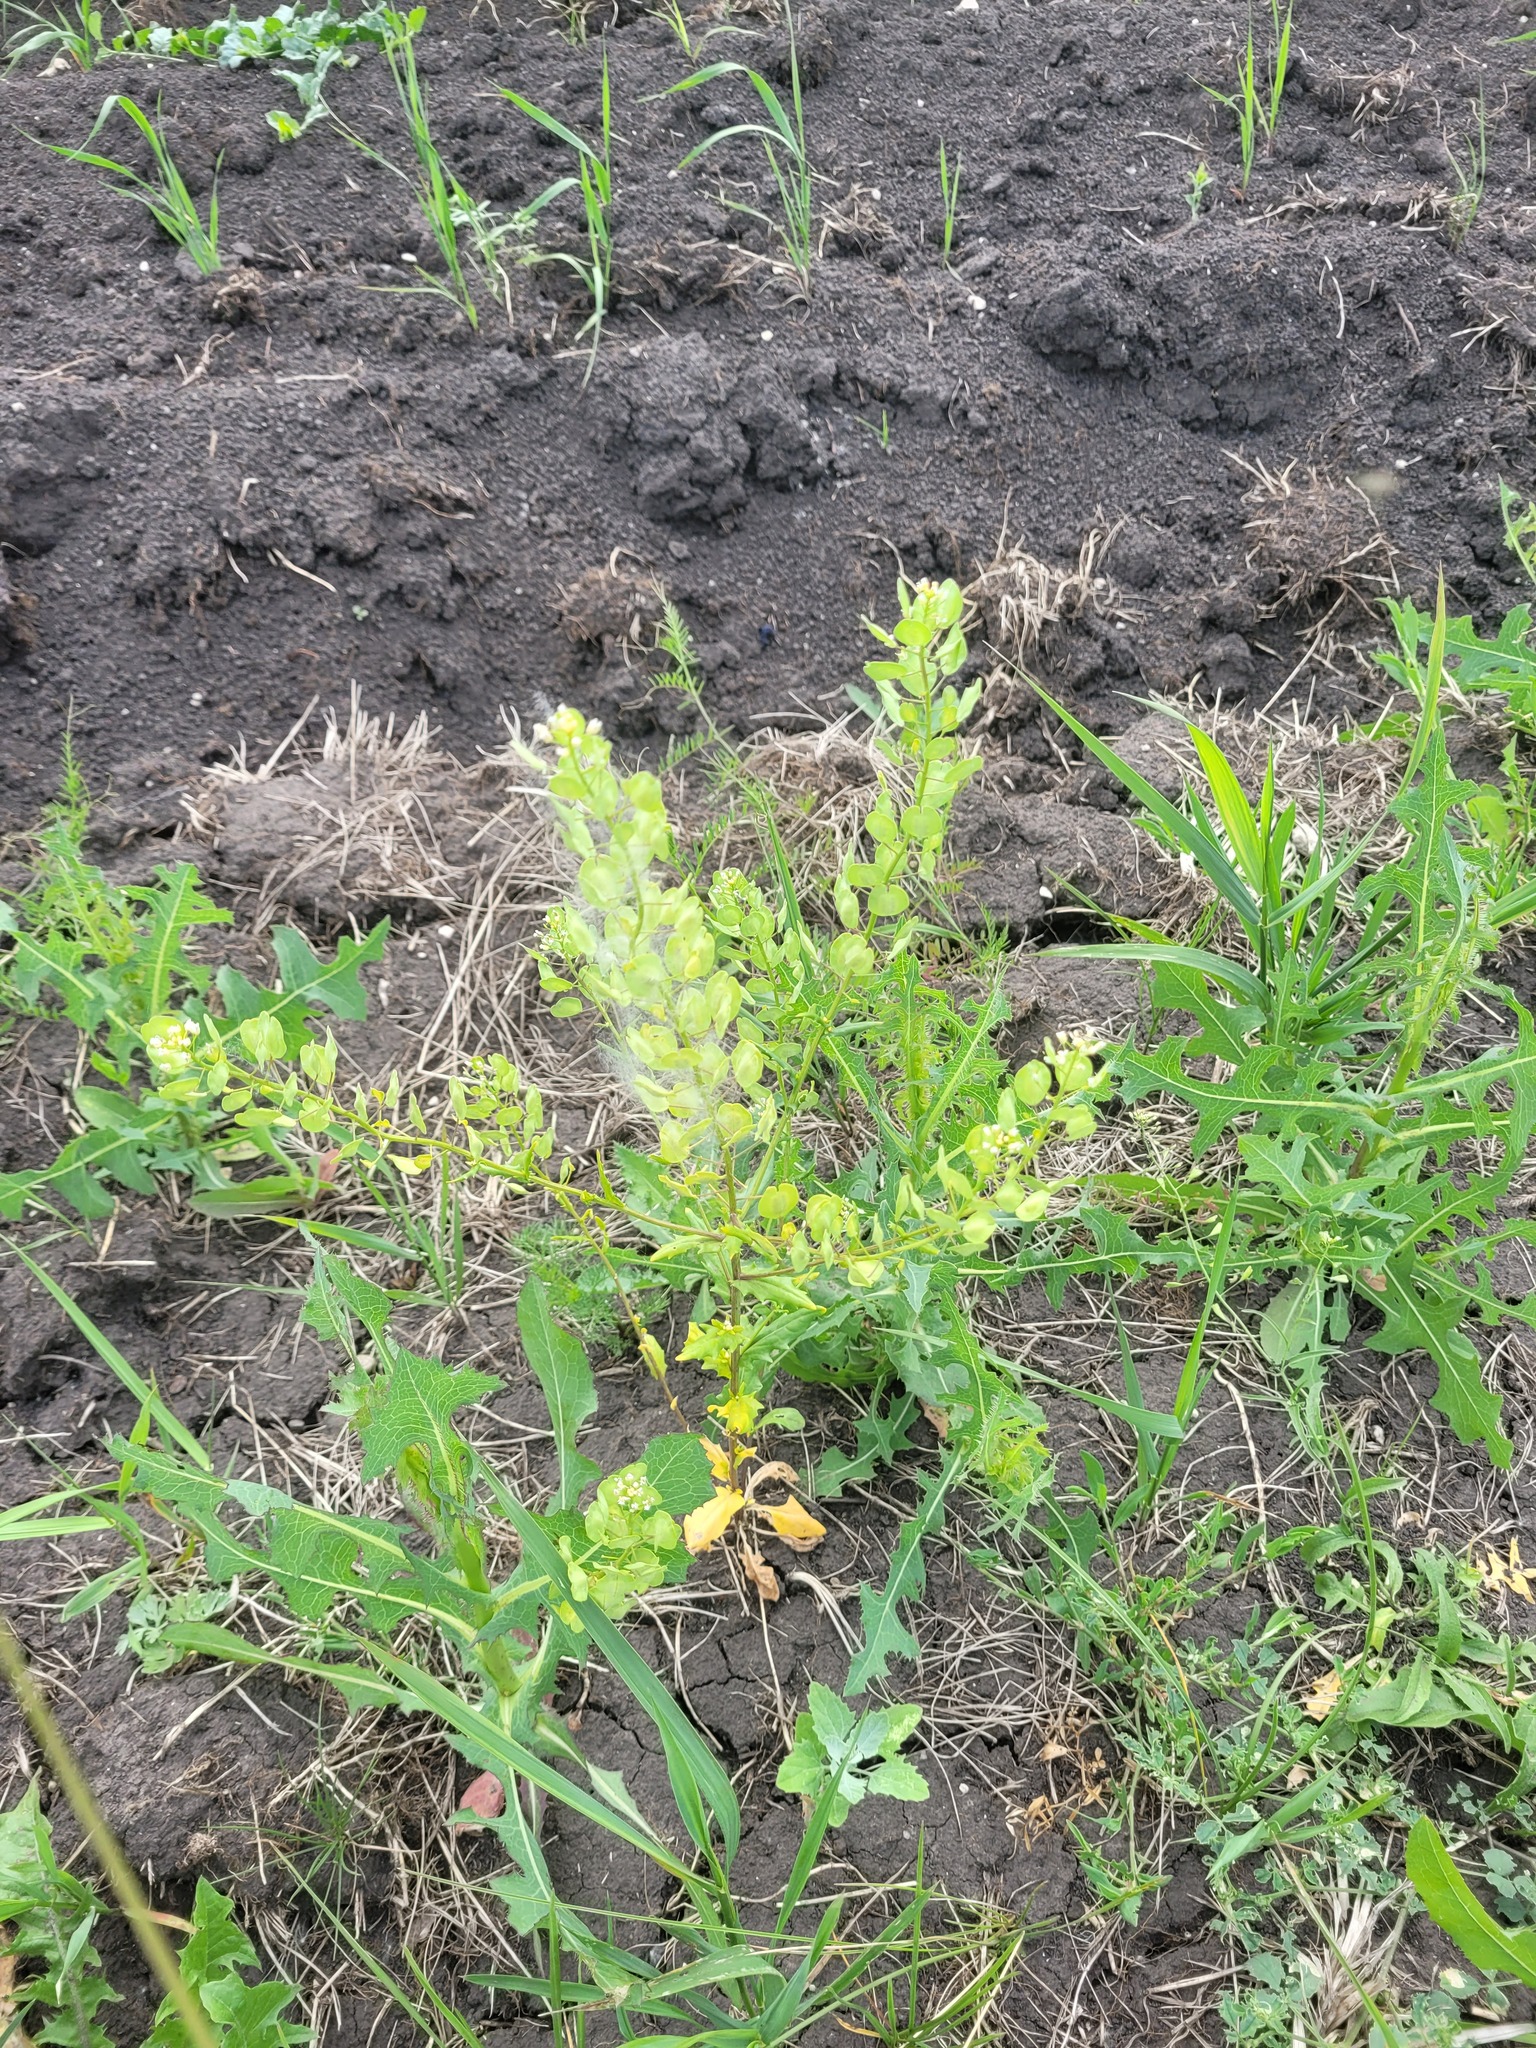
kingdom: Plantae
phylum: Tracheophyta
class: Magnoliopsida
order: Brassicales
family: Brassicaceae
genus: Thlaspi
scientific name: Thlaspi arvense
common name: Field pennycress
